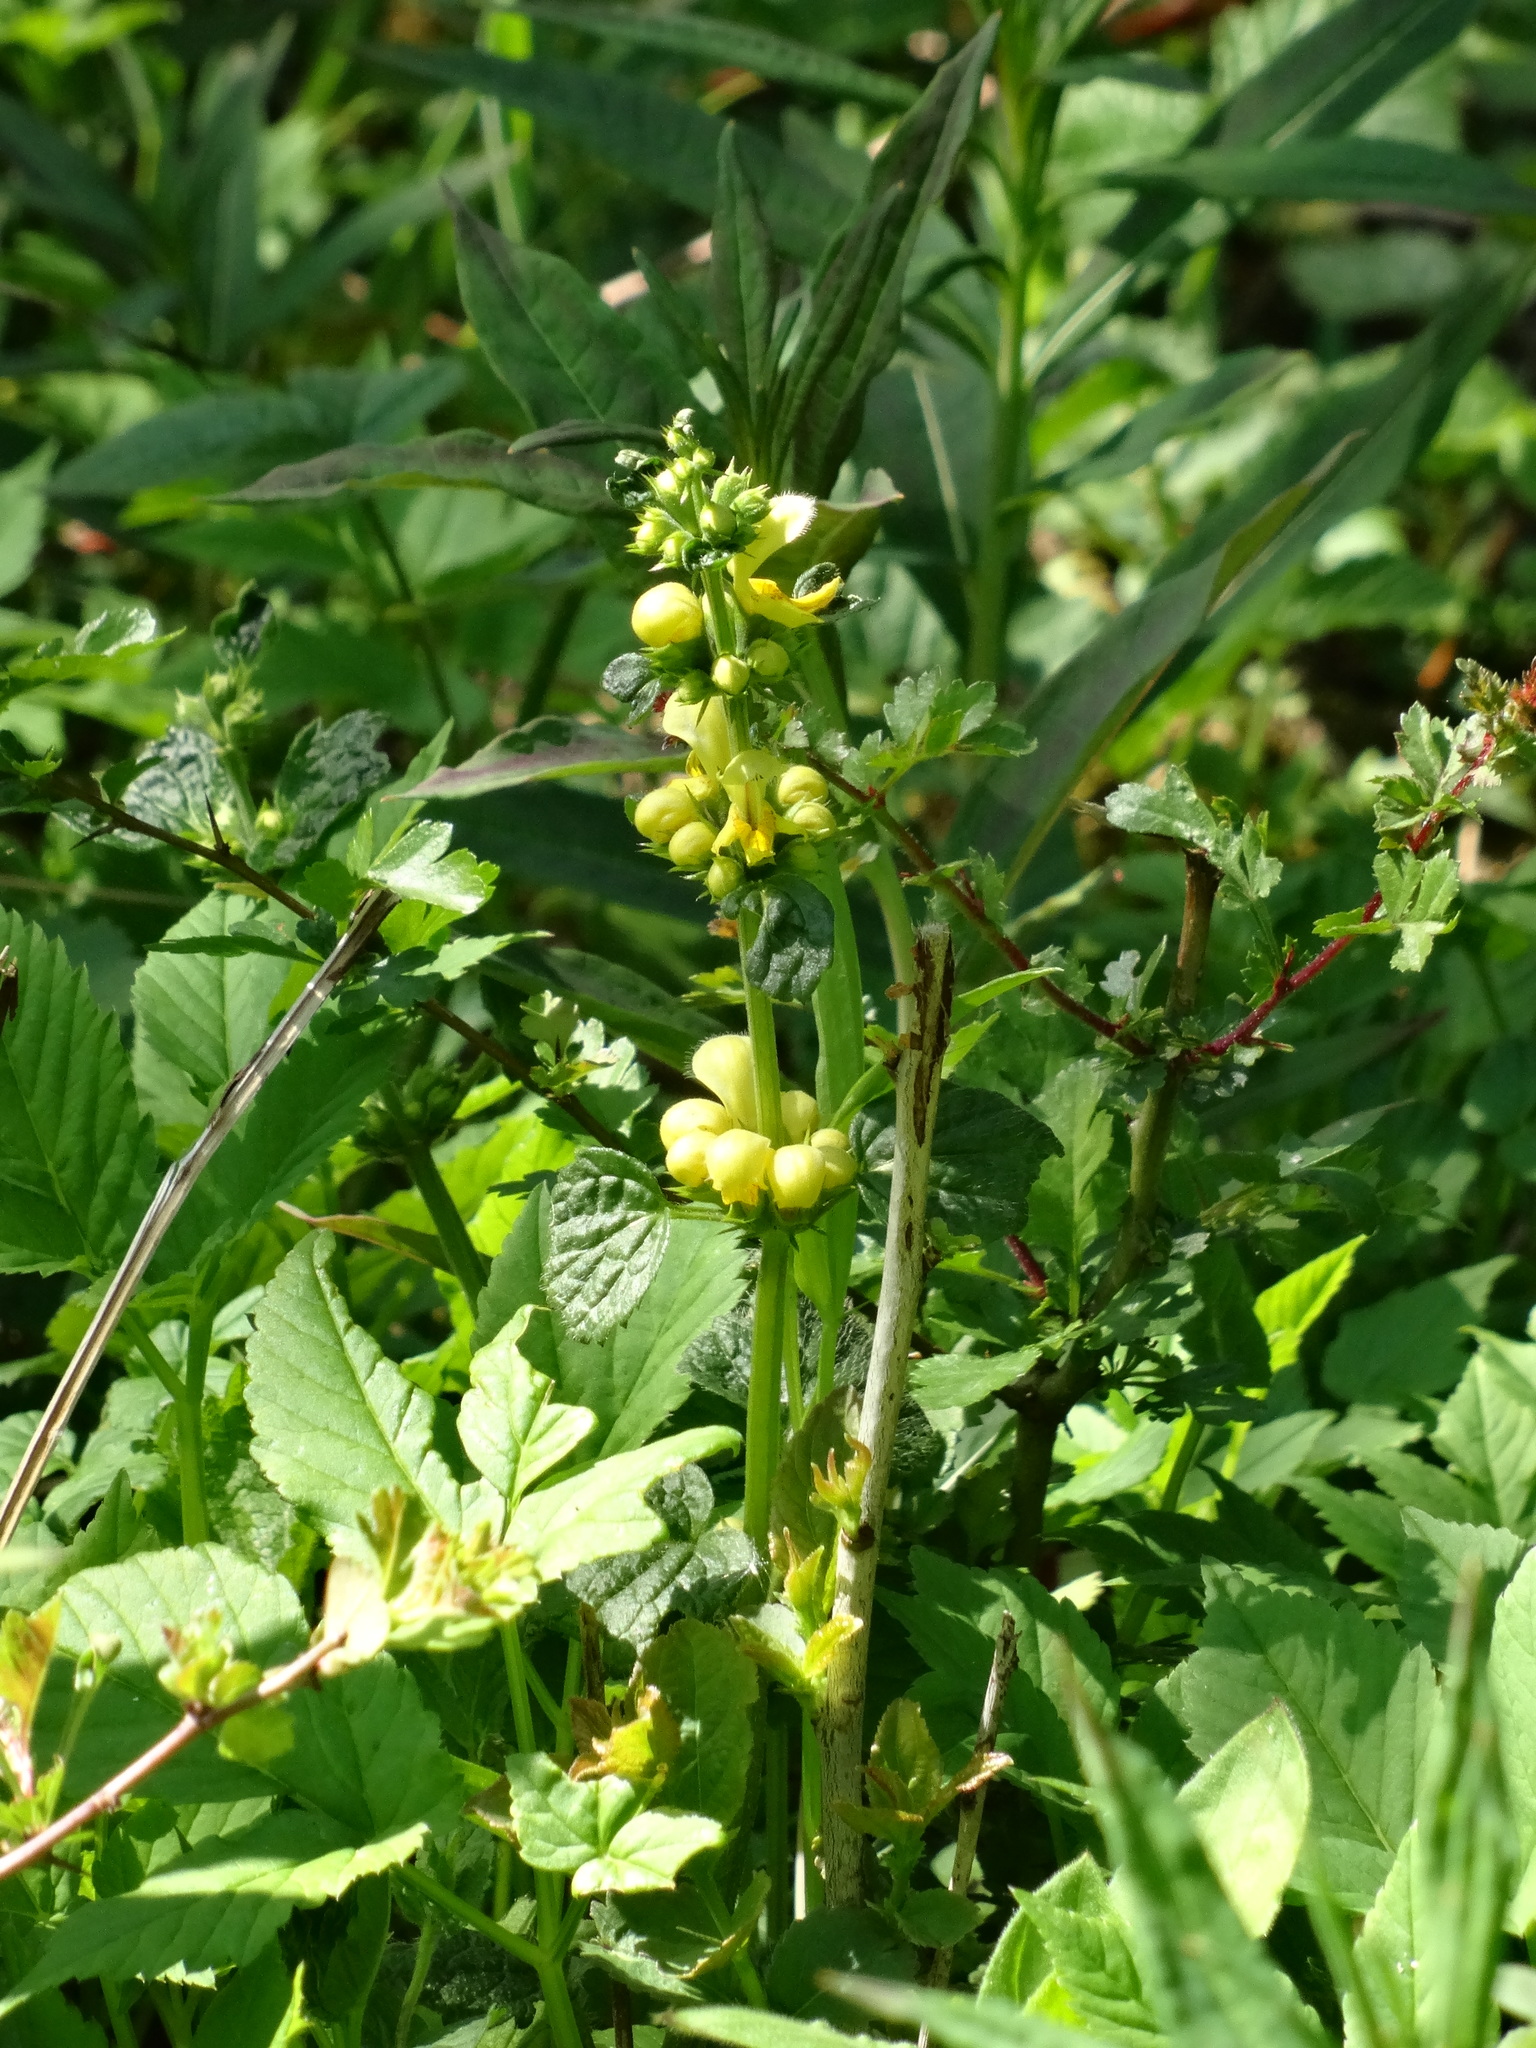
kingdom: Plantae
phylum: Tracheophyta
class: Magnoliopsida
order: Lamiales
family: Lamiaceae
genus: Lamium
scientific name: Lamium galeobdolon
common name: Yellow archangel
